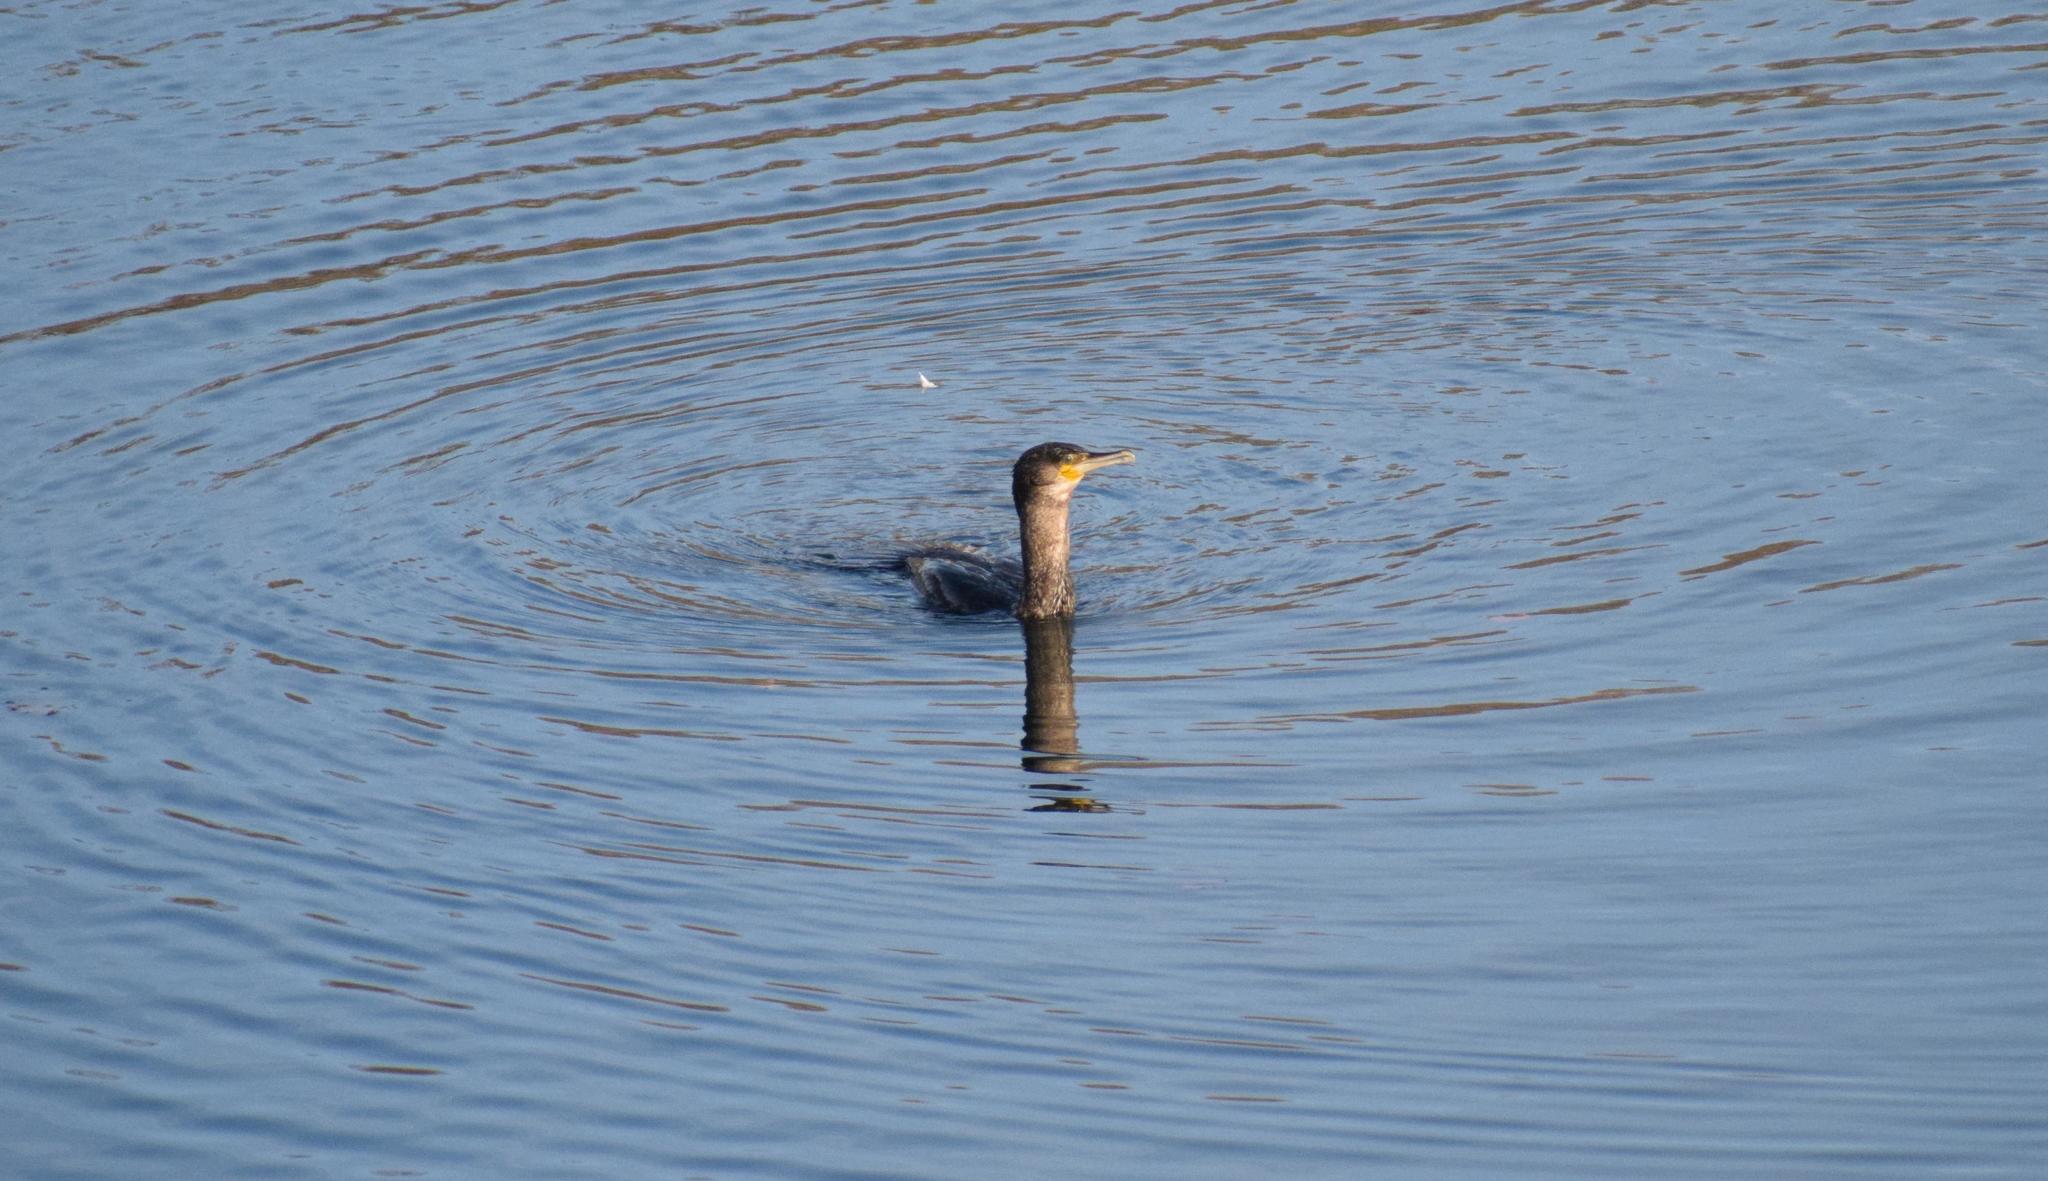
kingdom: Animalia
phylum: Chordata
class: Aves
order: Suliformes
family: Phalacrocoracidae
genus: Phalacrocorax
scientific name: Phalacrocorax carbo
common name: Great cormorant
